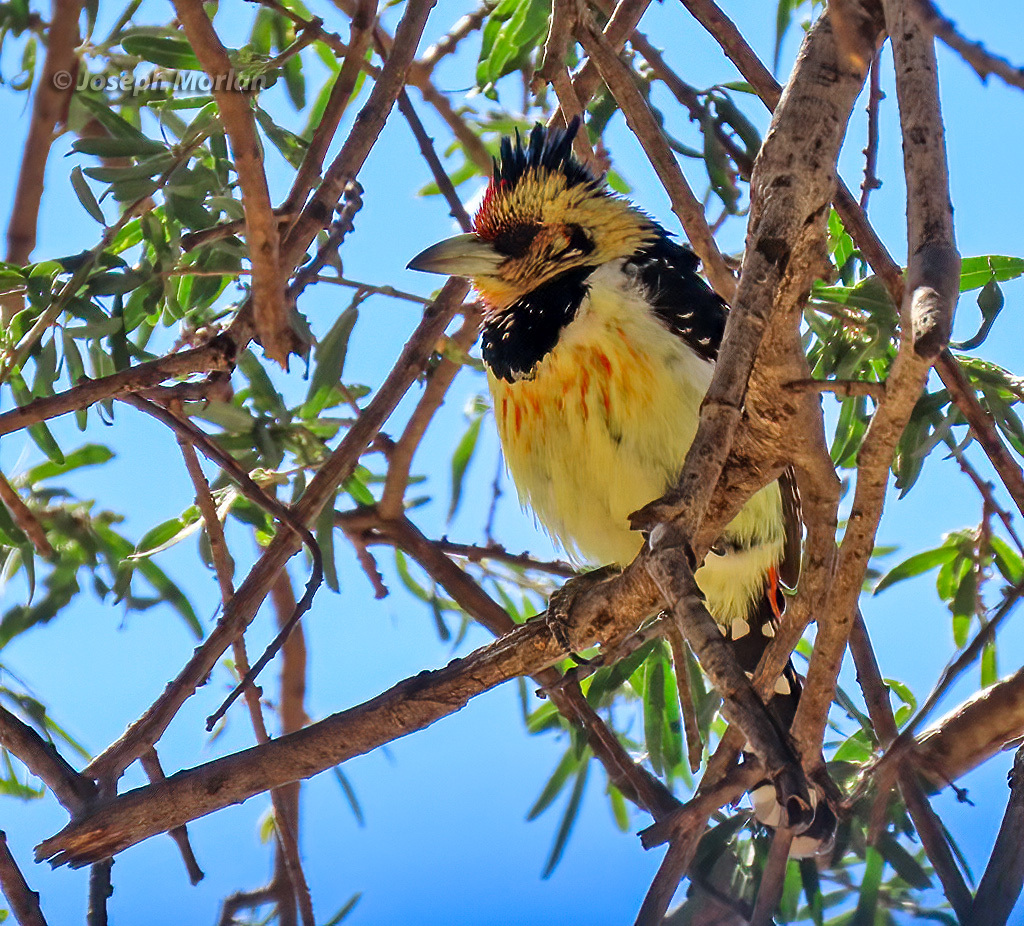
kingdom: Animalia
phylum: Chordata
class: Aves
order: Piciformes
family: Lybiidae
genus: Trachyphonus
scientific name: Trachyphonus vaillantii
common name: Crested barbet
